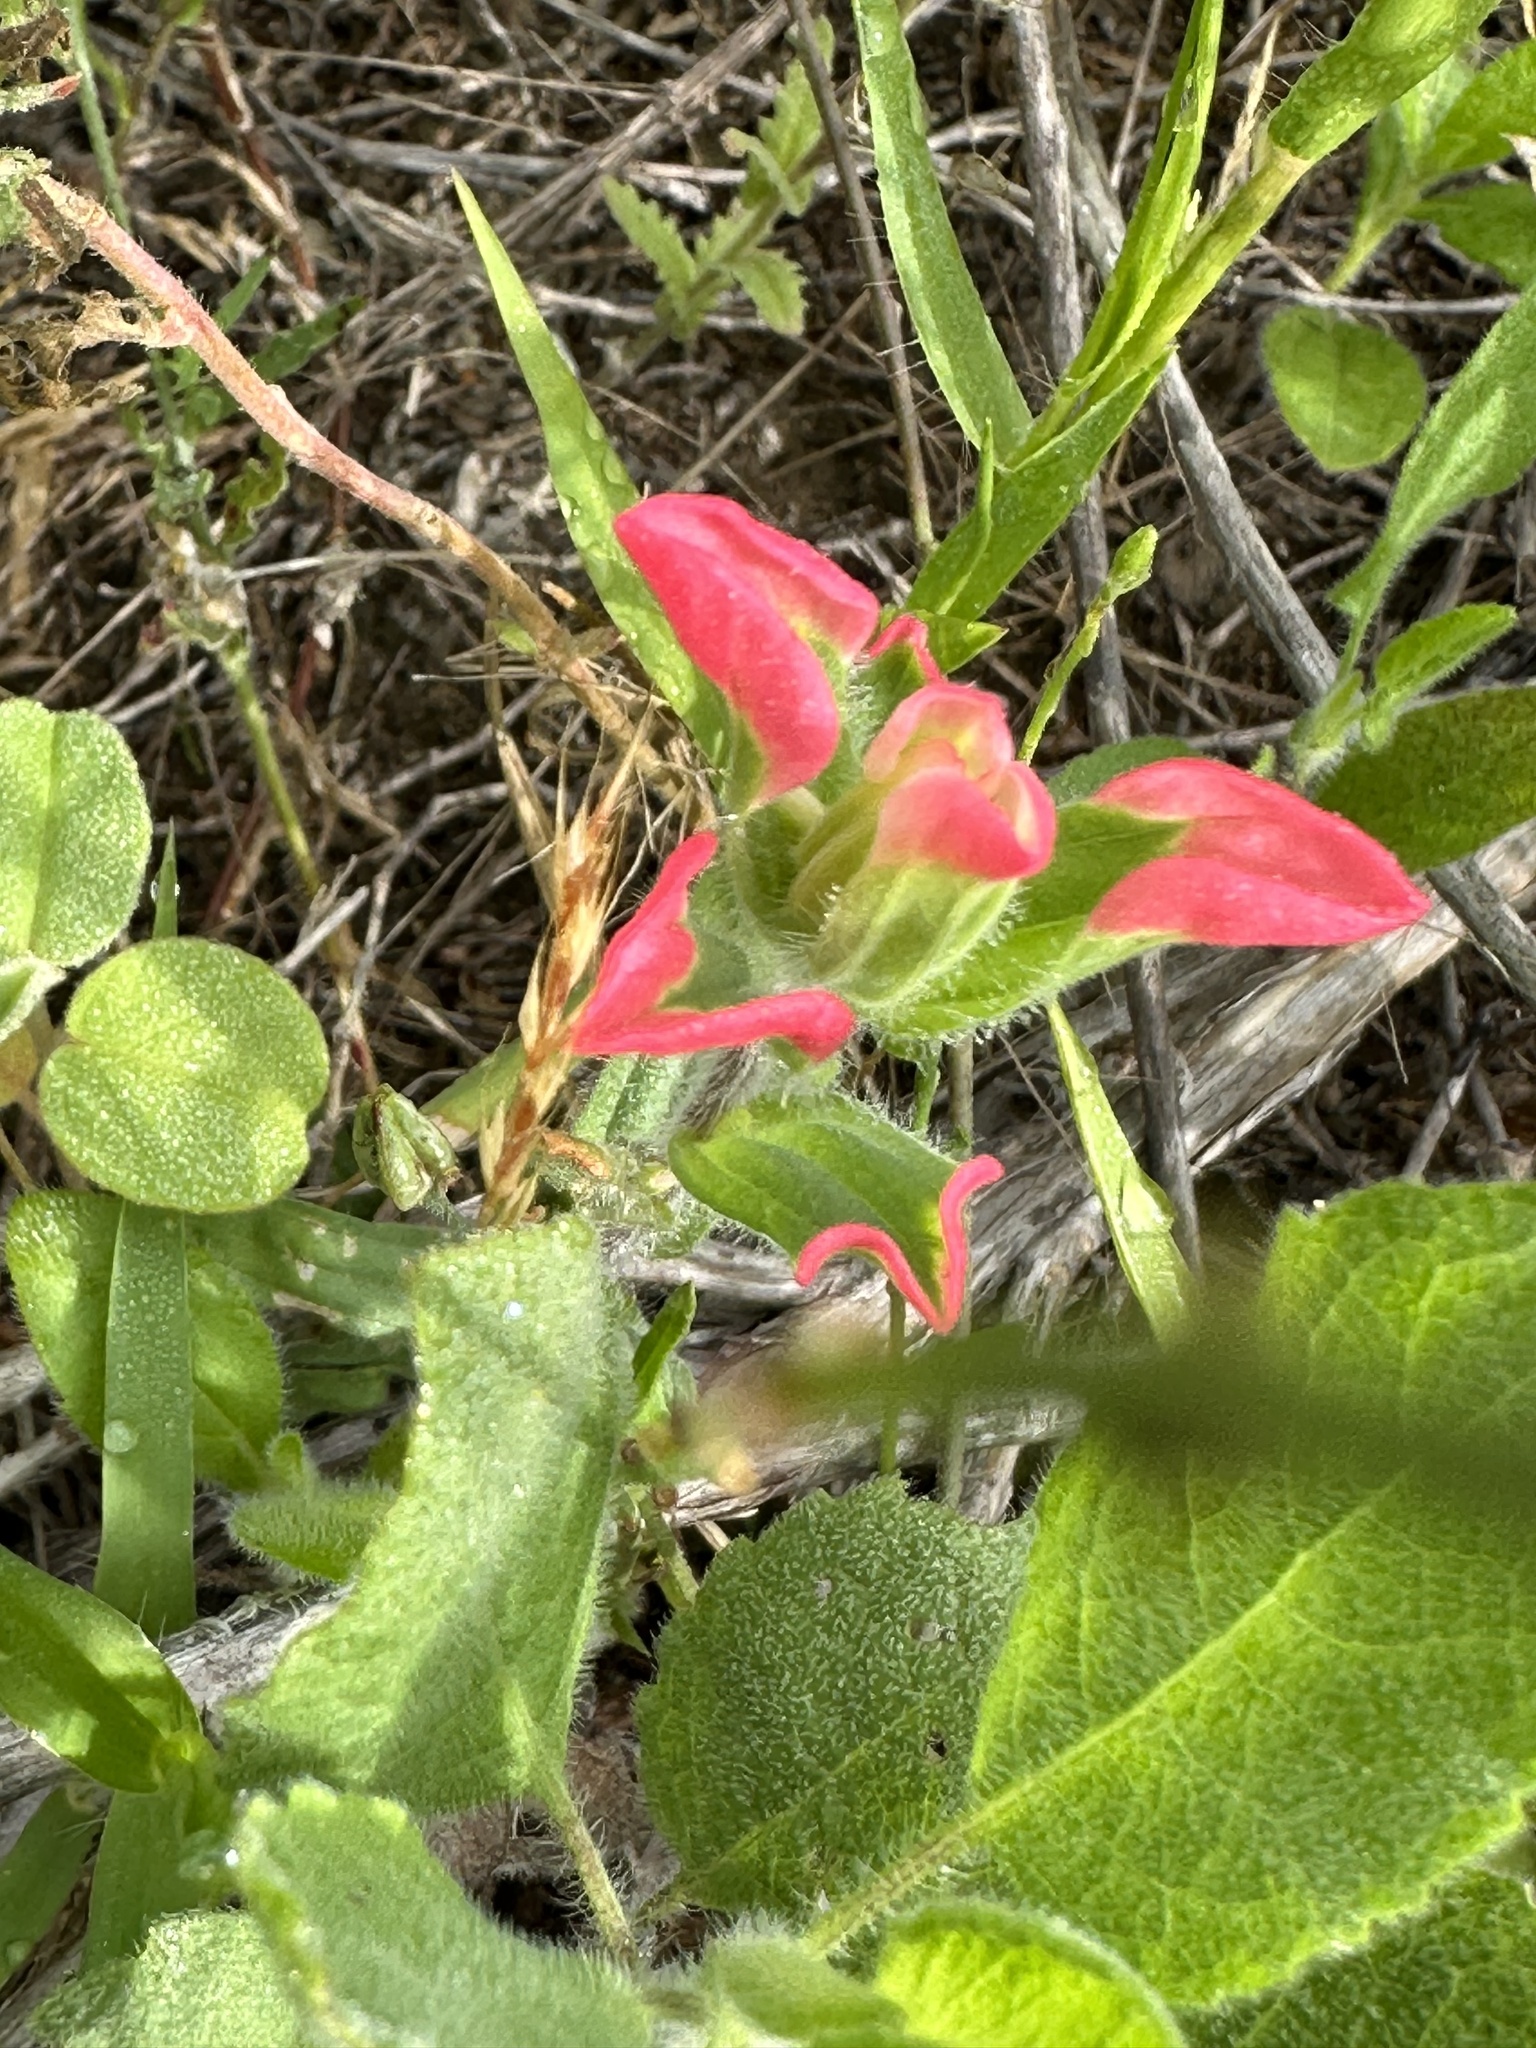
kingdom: Plantae
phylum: Tracheophyta
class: Magnoliopsida
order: Lamiales
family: Orobanchaceae
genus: Castilleja
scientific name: Castilleja indivisa
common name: Texas paintbrush
